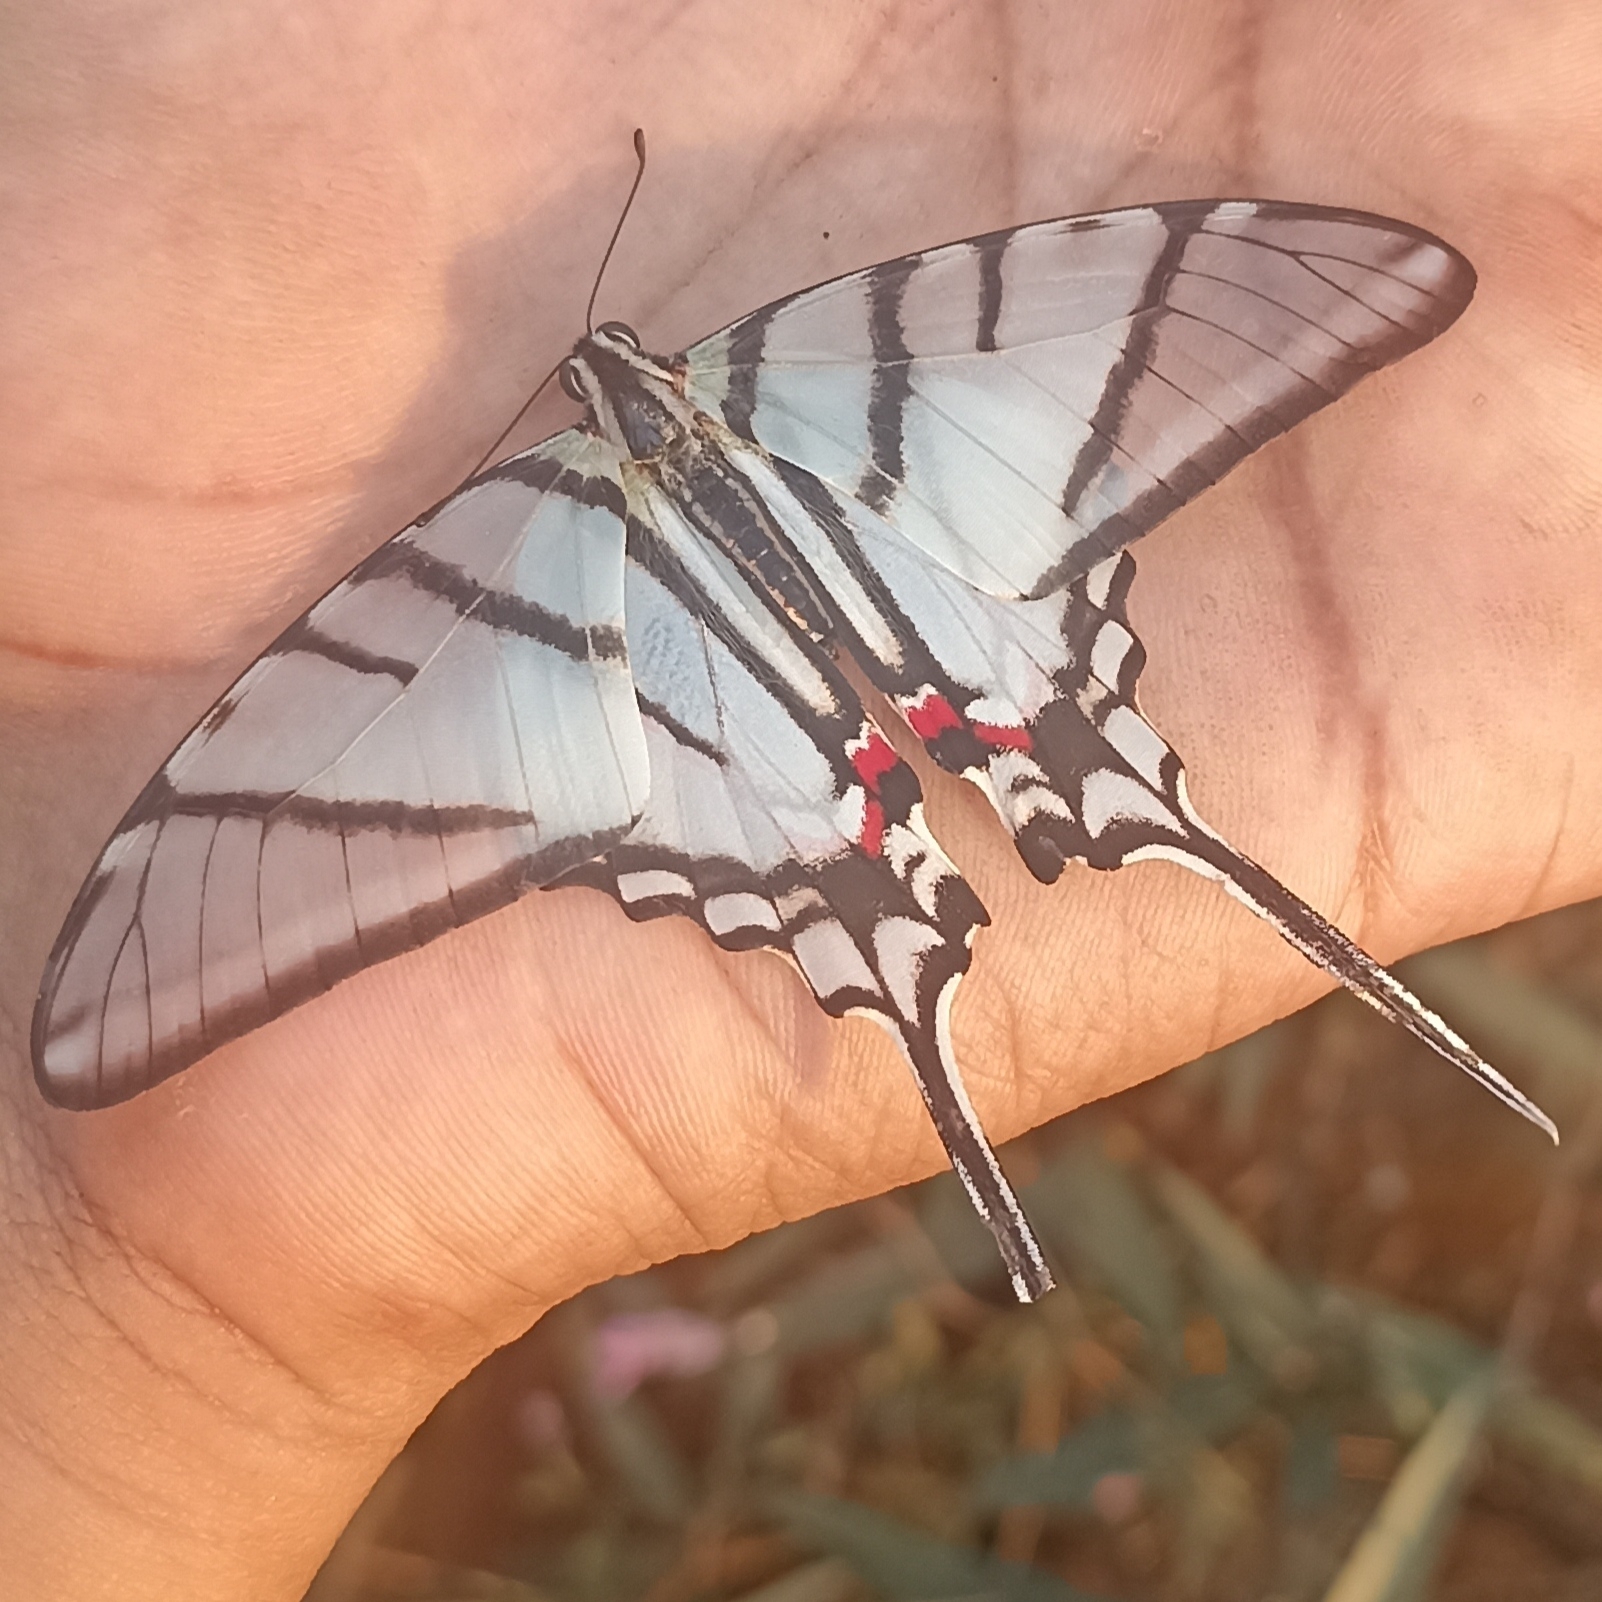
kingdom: Animalia
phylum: Arthropoda
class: Insecta
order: Lepidoptera
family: Papilionidae
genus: Protographium
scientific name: Protographium epidaus
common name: Mexican kite swallowtail
